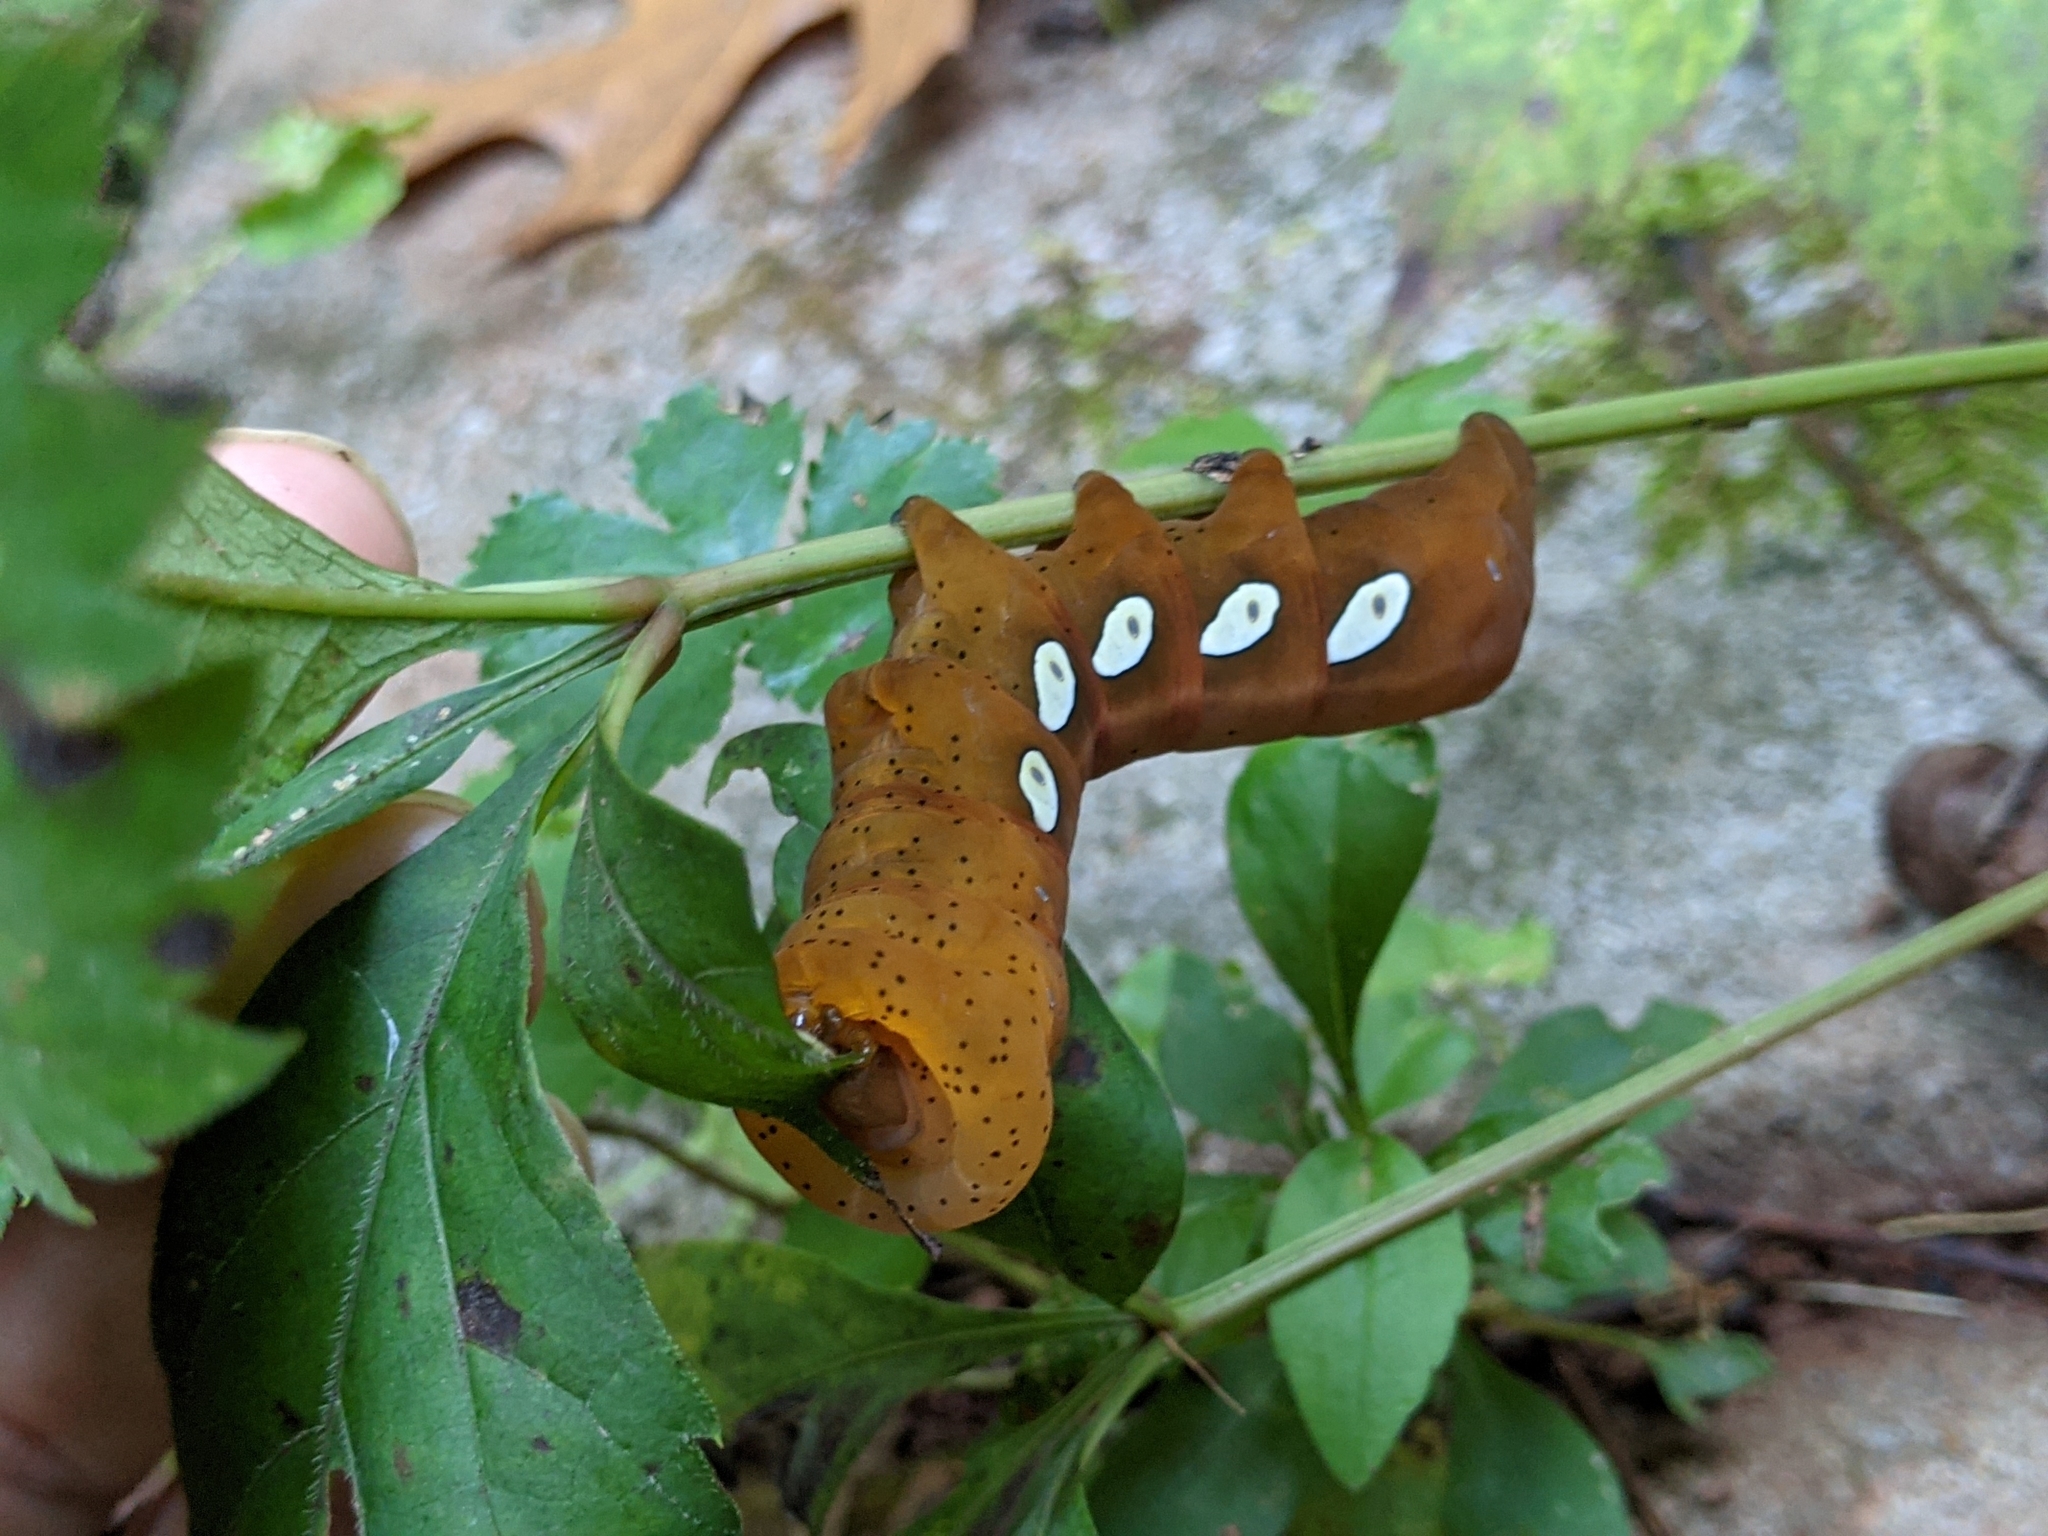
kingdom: Animalia
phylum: Arthropoda
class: Insecta
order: Lepidoptera
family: Sphingidae
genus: Eumorpha
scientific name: Eumorpha pandorus
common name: Pandora sphinx
